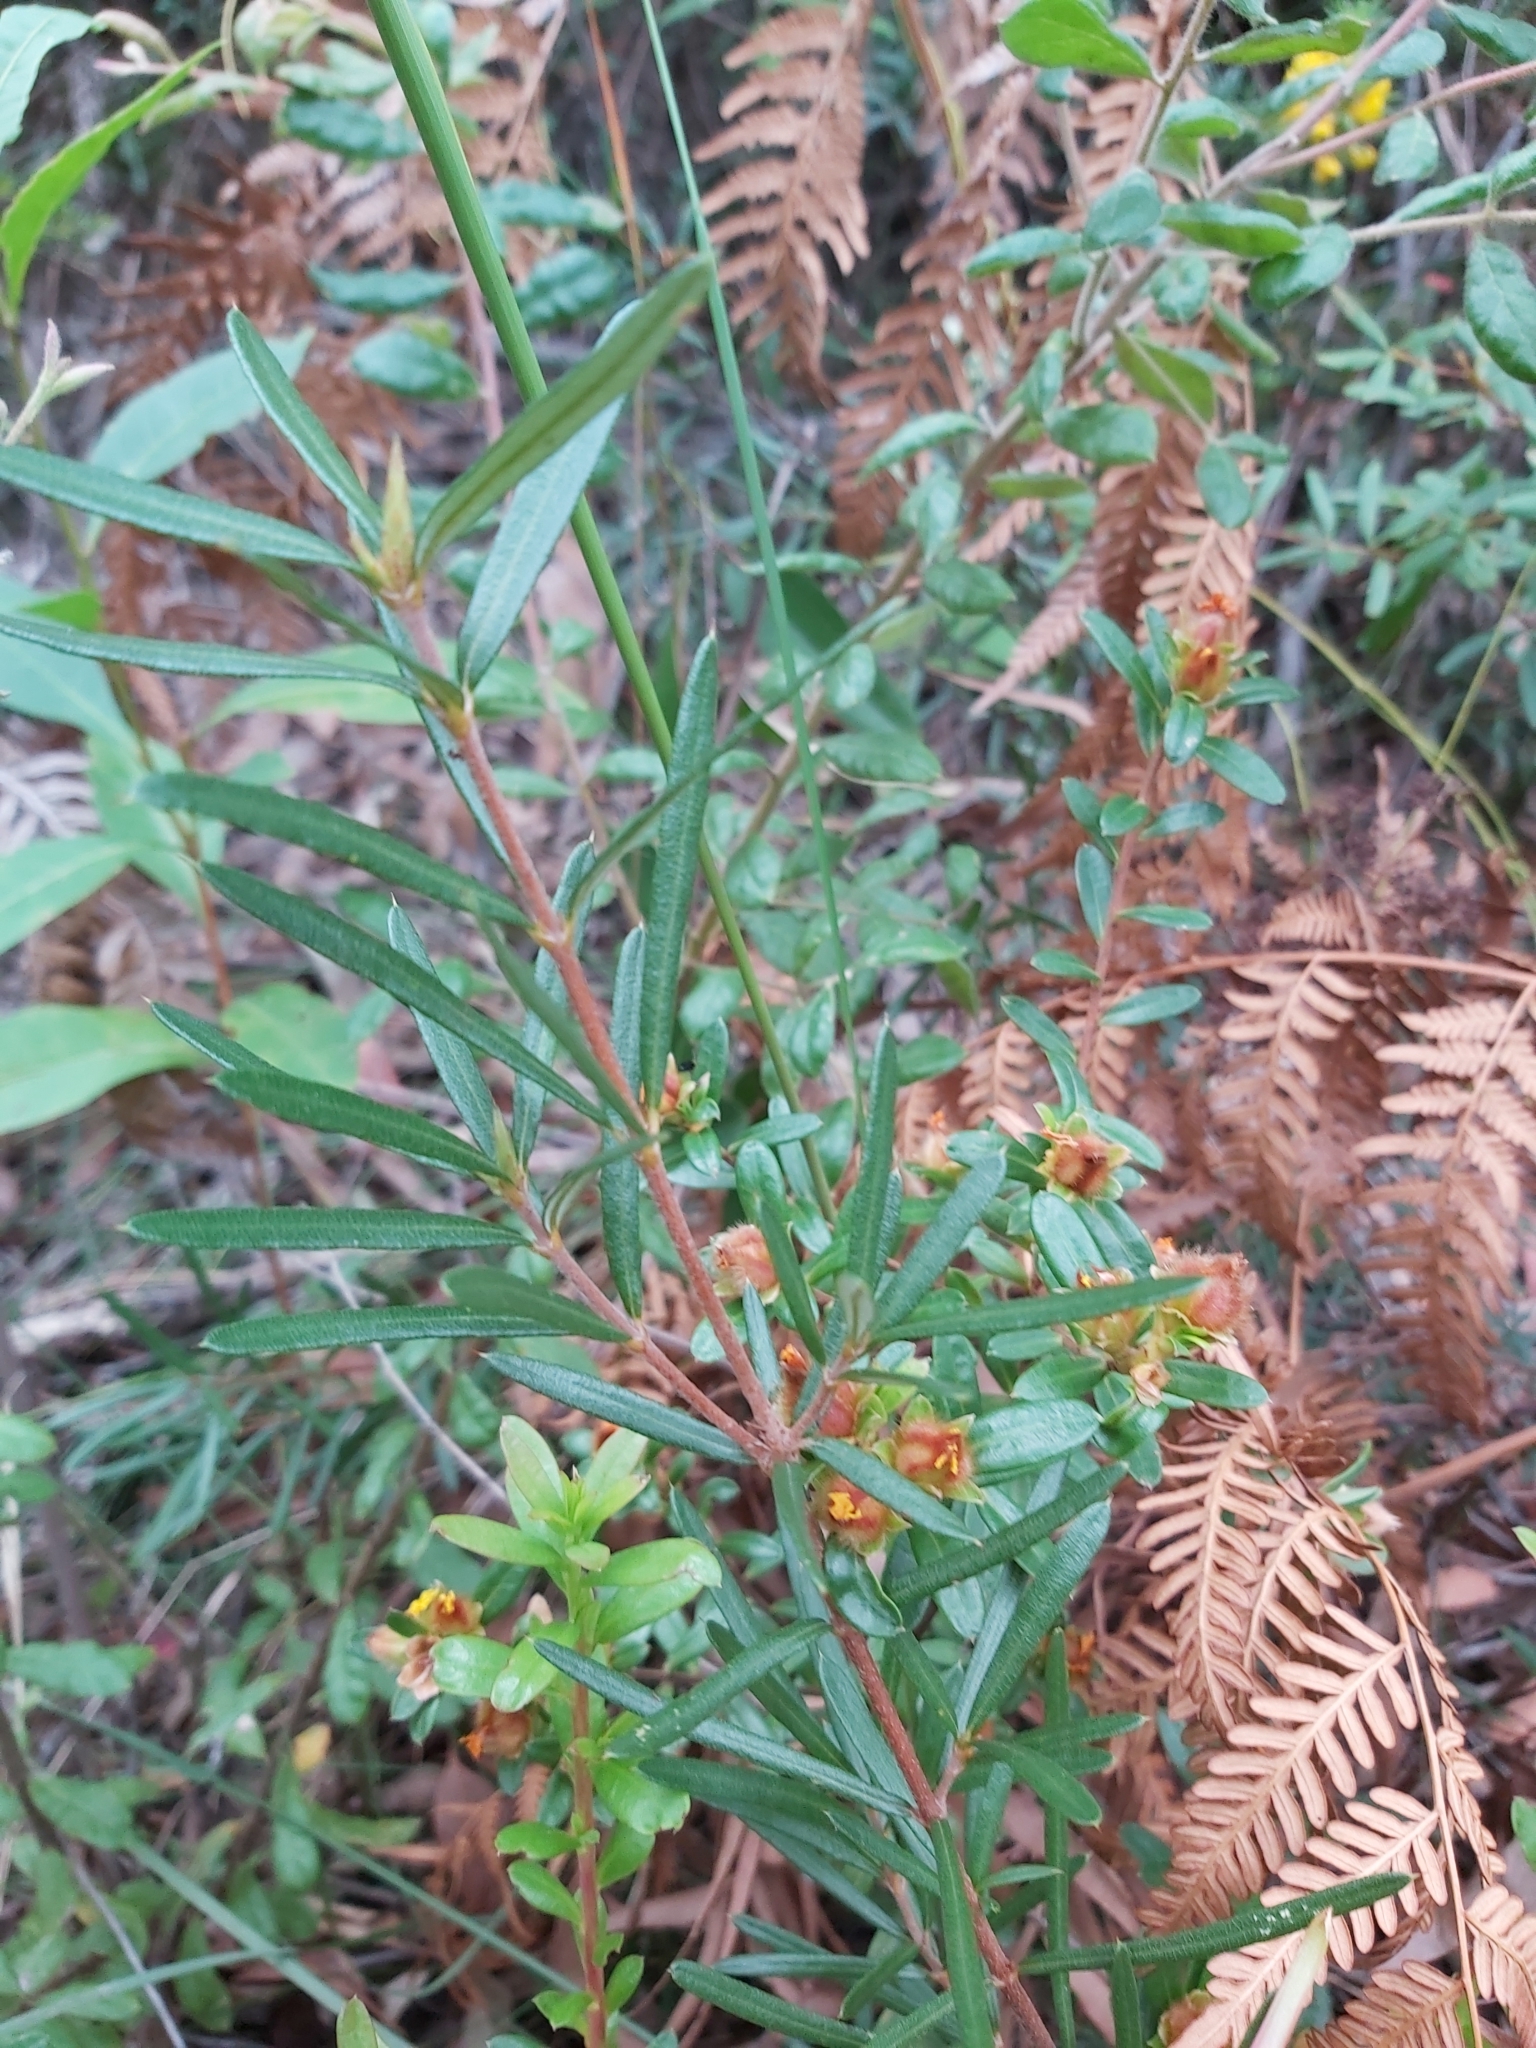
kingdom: Plantae
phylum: Tracheophyta
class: Magnoliopsida
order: Proteales
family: Proteaceae
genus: Lambertia
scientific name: Lambertia formosa
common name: Mountain-devil
